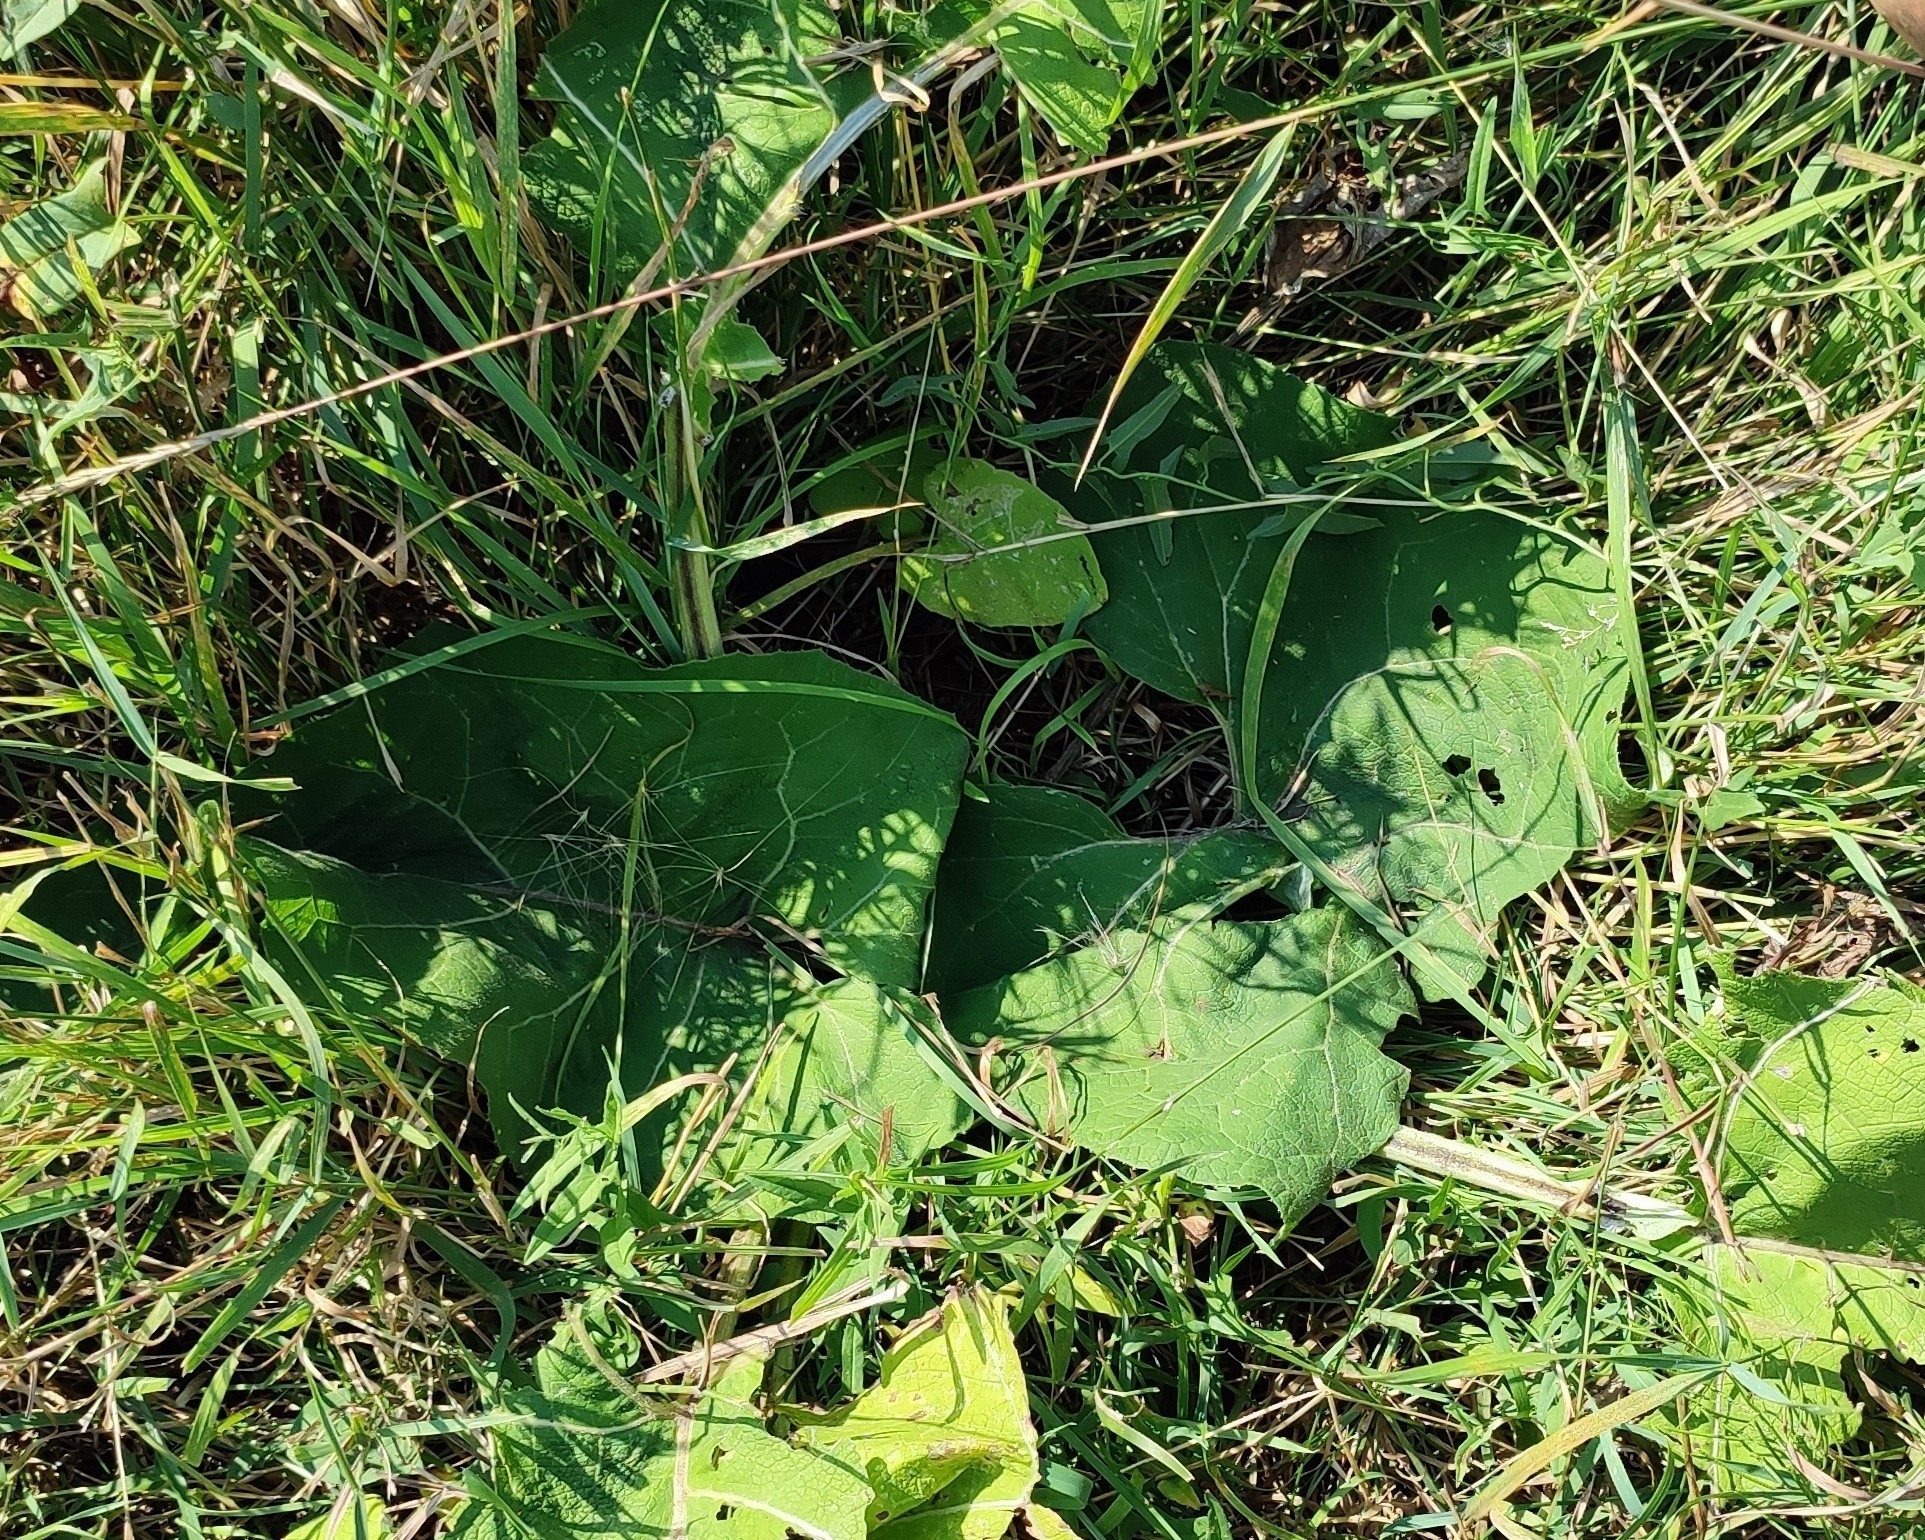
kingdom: Plantae
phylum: Tracheophyta
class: Magnoliopsida
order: Asterales
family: Asteraceae
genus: Arctium
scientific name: Arctium tomentosum
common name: Woolly burdock
